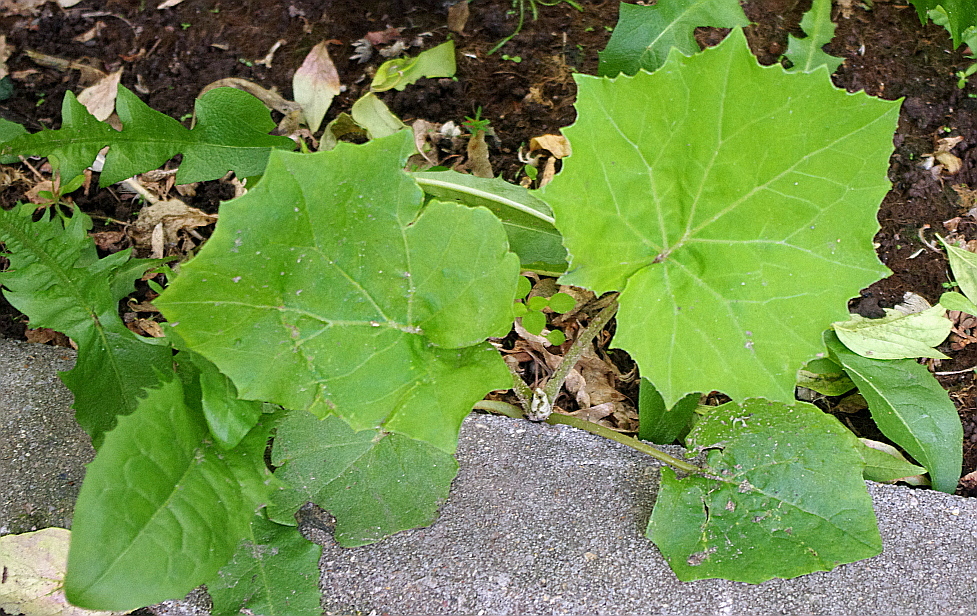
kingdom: Plantae
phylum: Tracheophyta
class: Magnoliopsida
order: Asterales
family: Asteraceae
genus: Tussilago
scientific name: Tussilago farfara
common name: Coltsfoot
